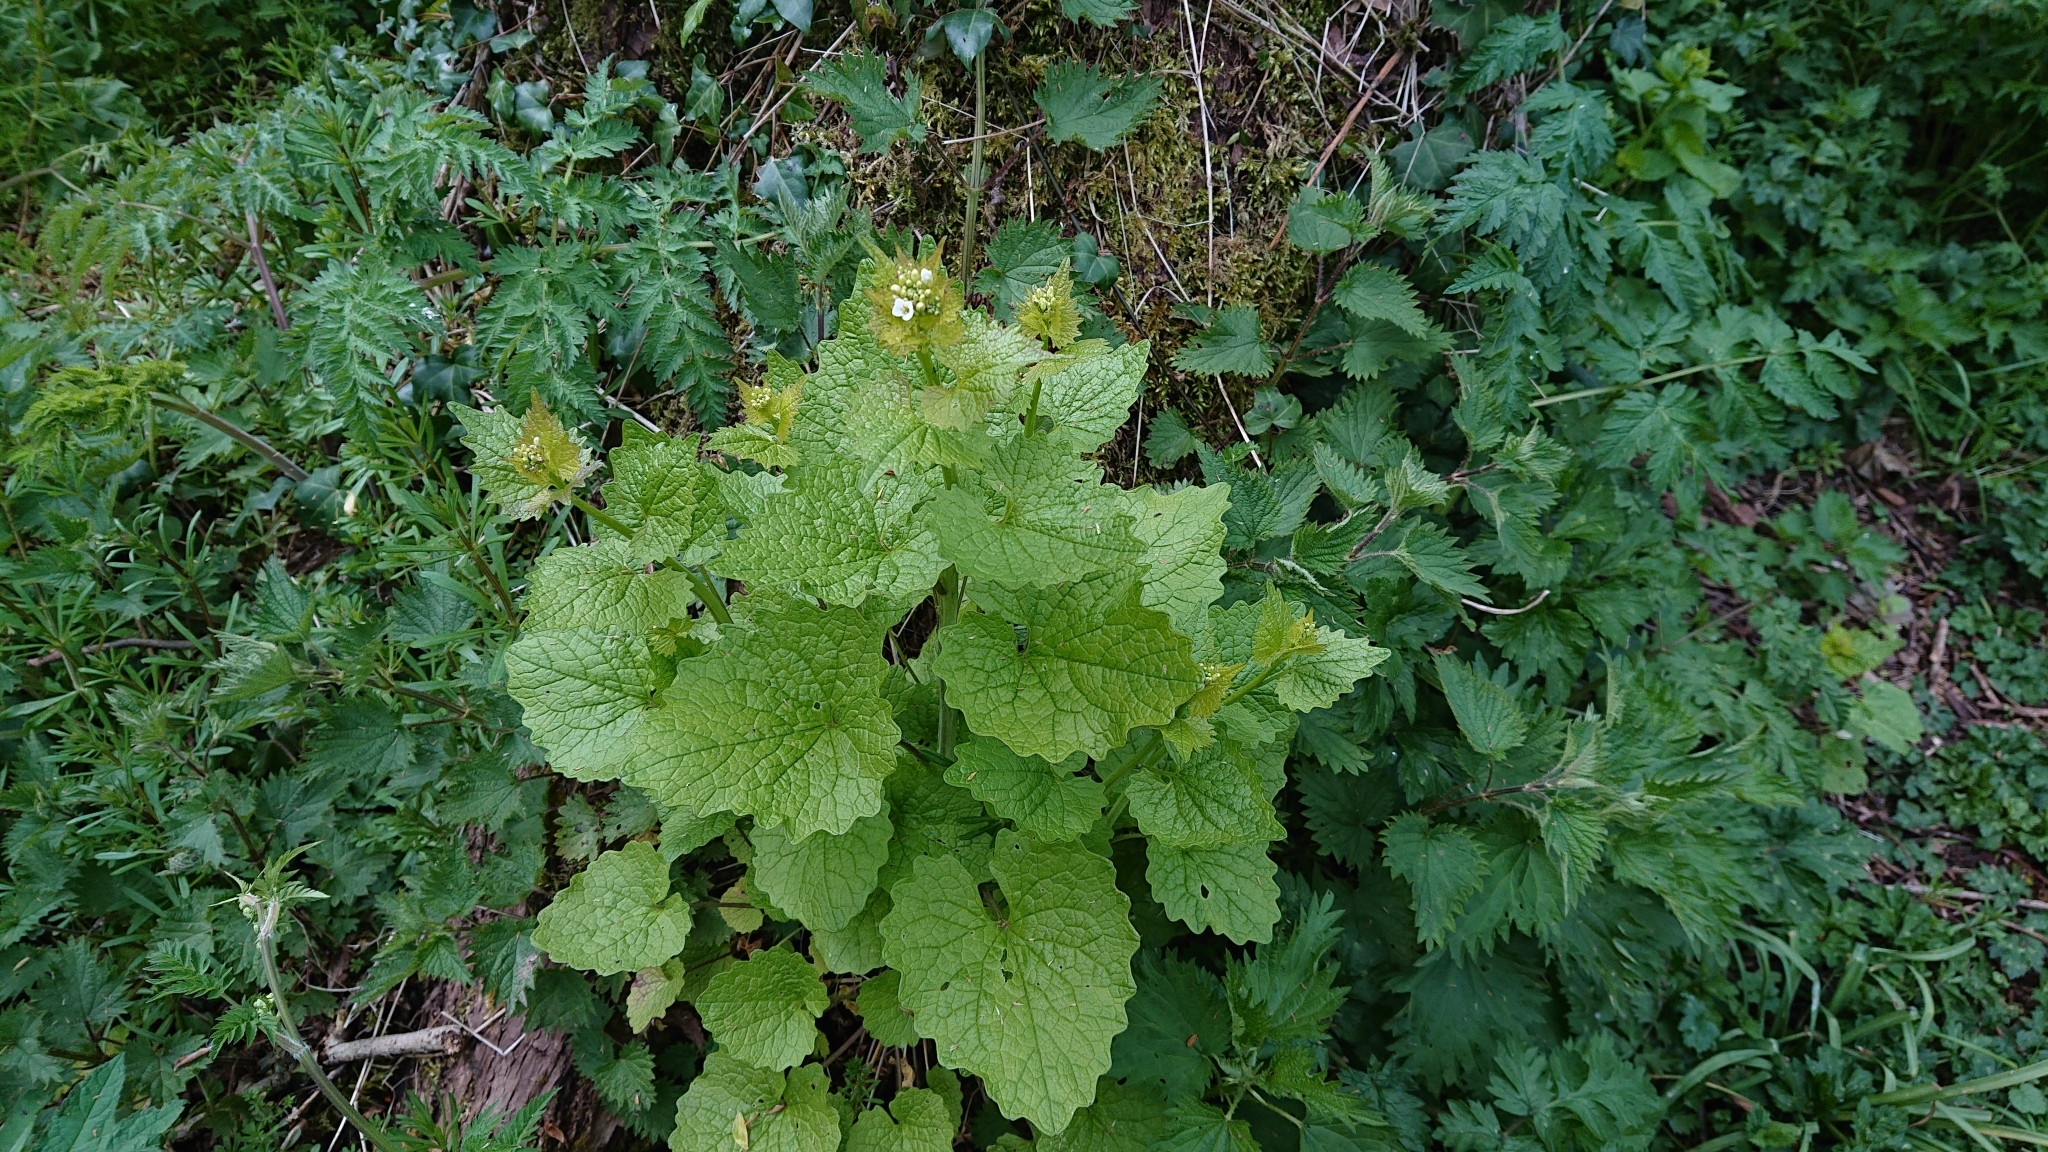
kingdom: Plantae
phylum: Tracheophyta
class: Magnoliopsida
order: Brassicales
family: Brassicaceae
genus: Alliaria
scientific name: Alliaria petiolata
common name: Garlic mustard
